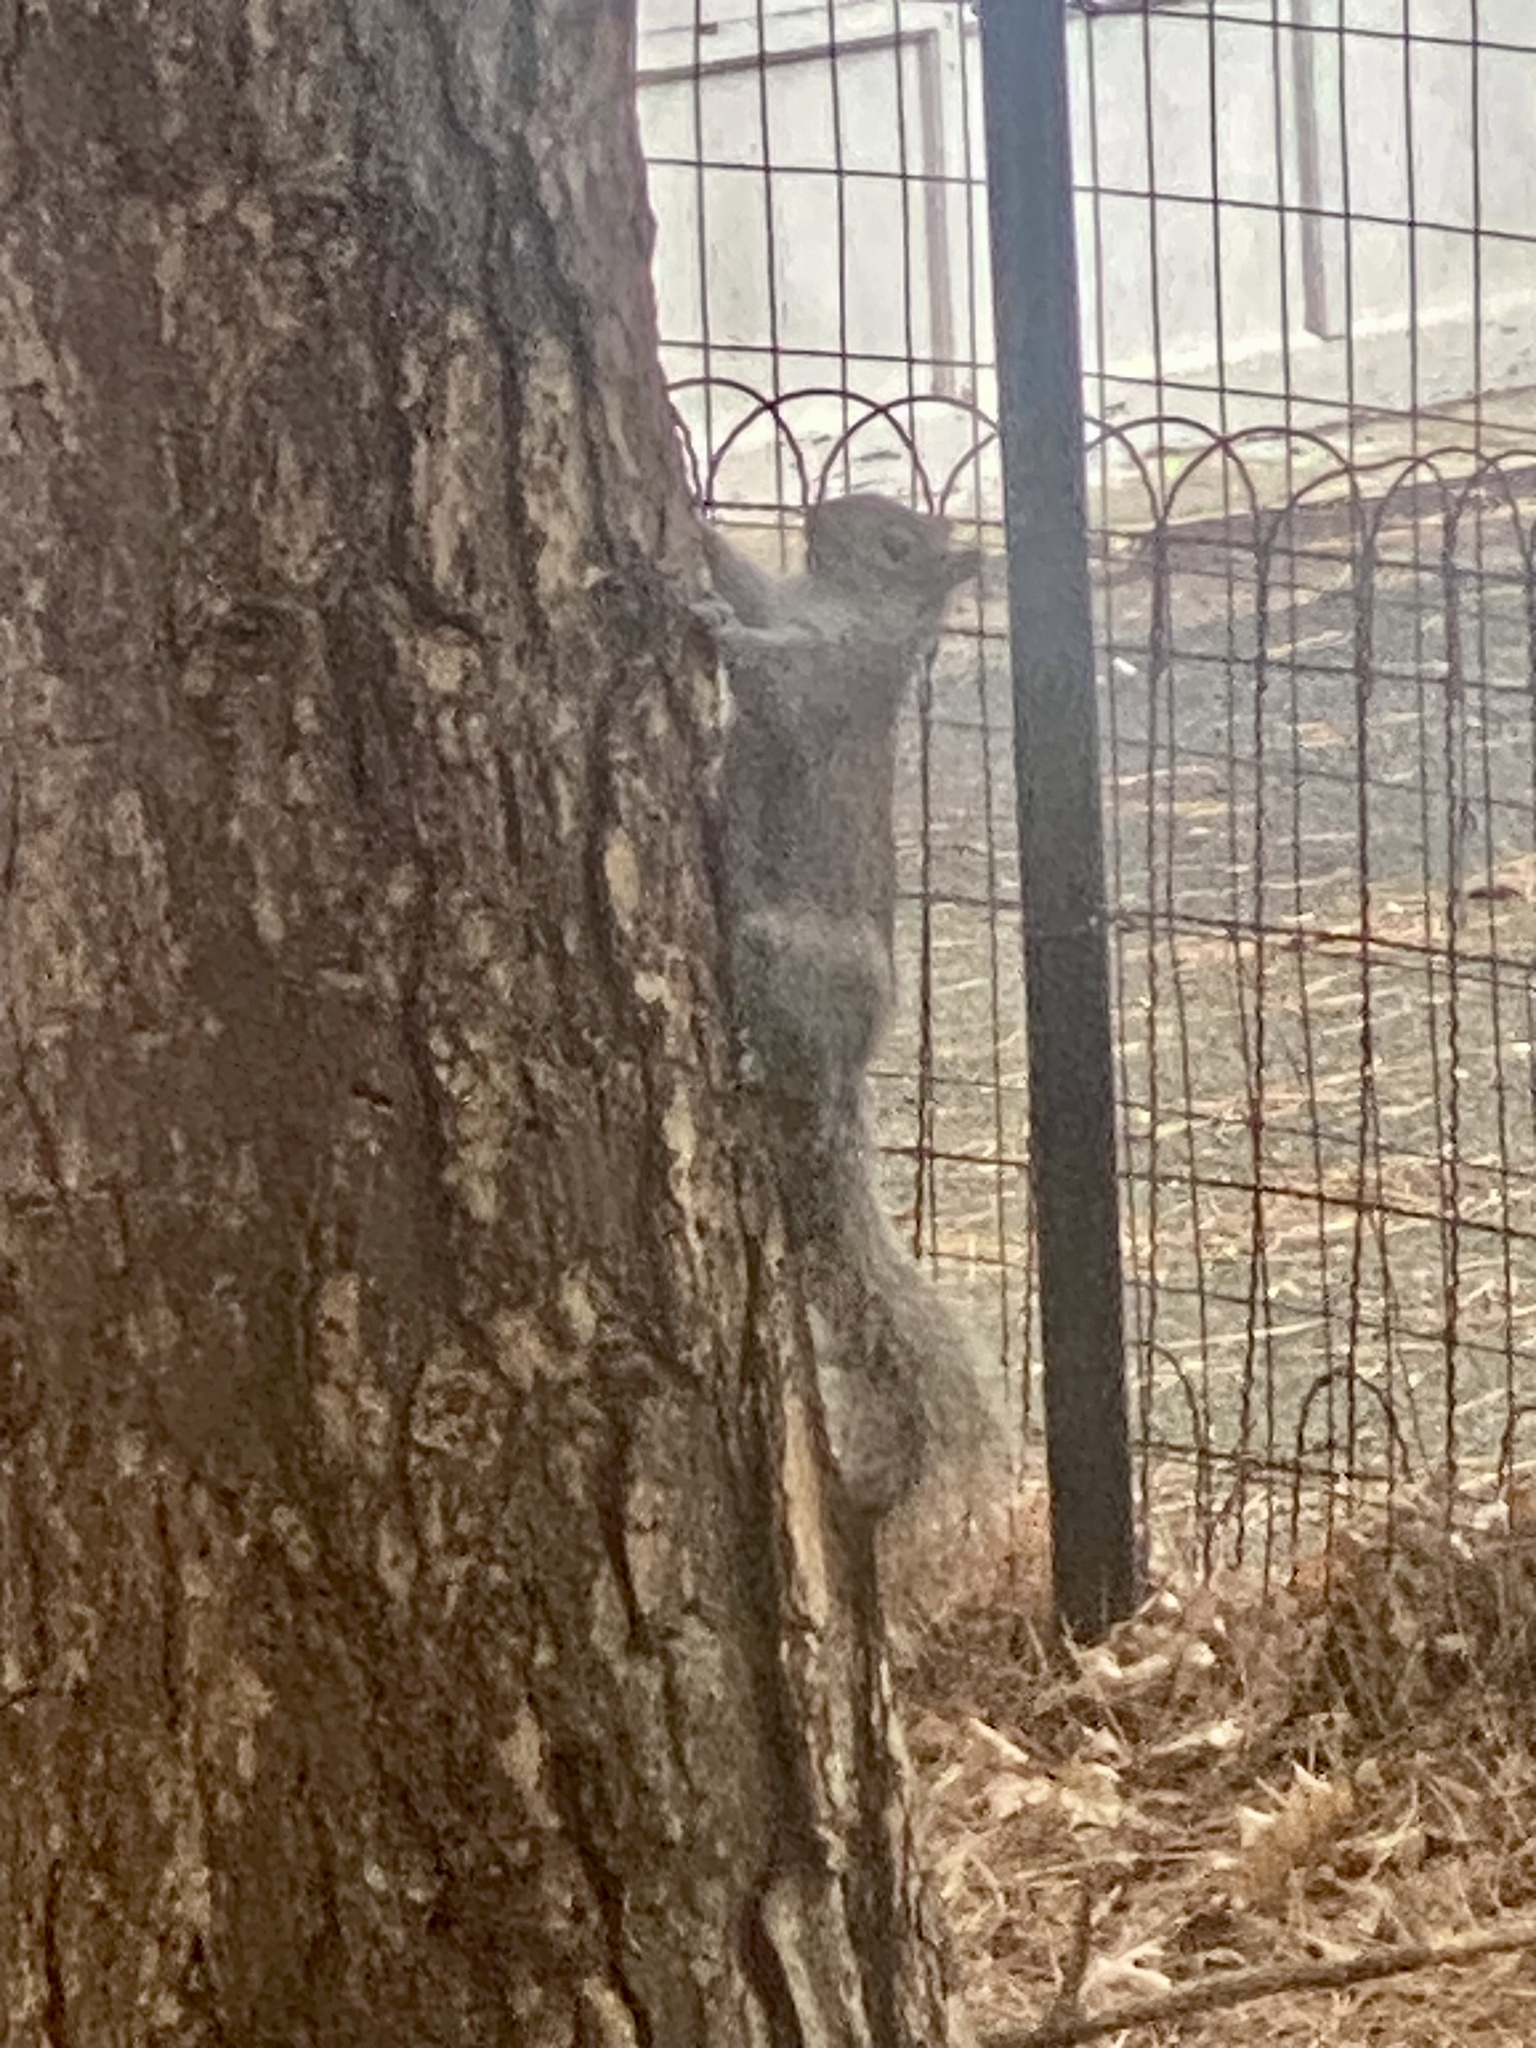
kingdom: Animalia
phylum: Chordata
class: Mammalia
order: Rodentia
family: Sciuridae
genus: Sciurus
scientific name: Sciurus carolinensis
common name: Eastern gray squirrel
